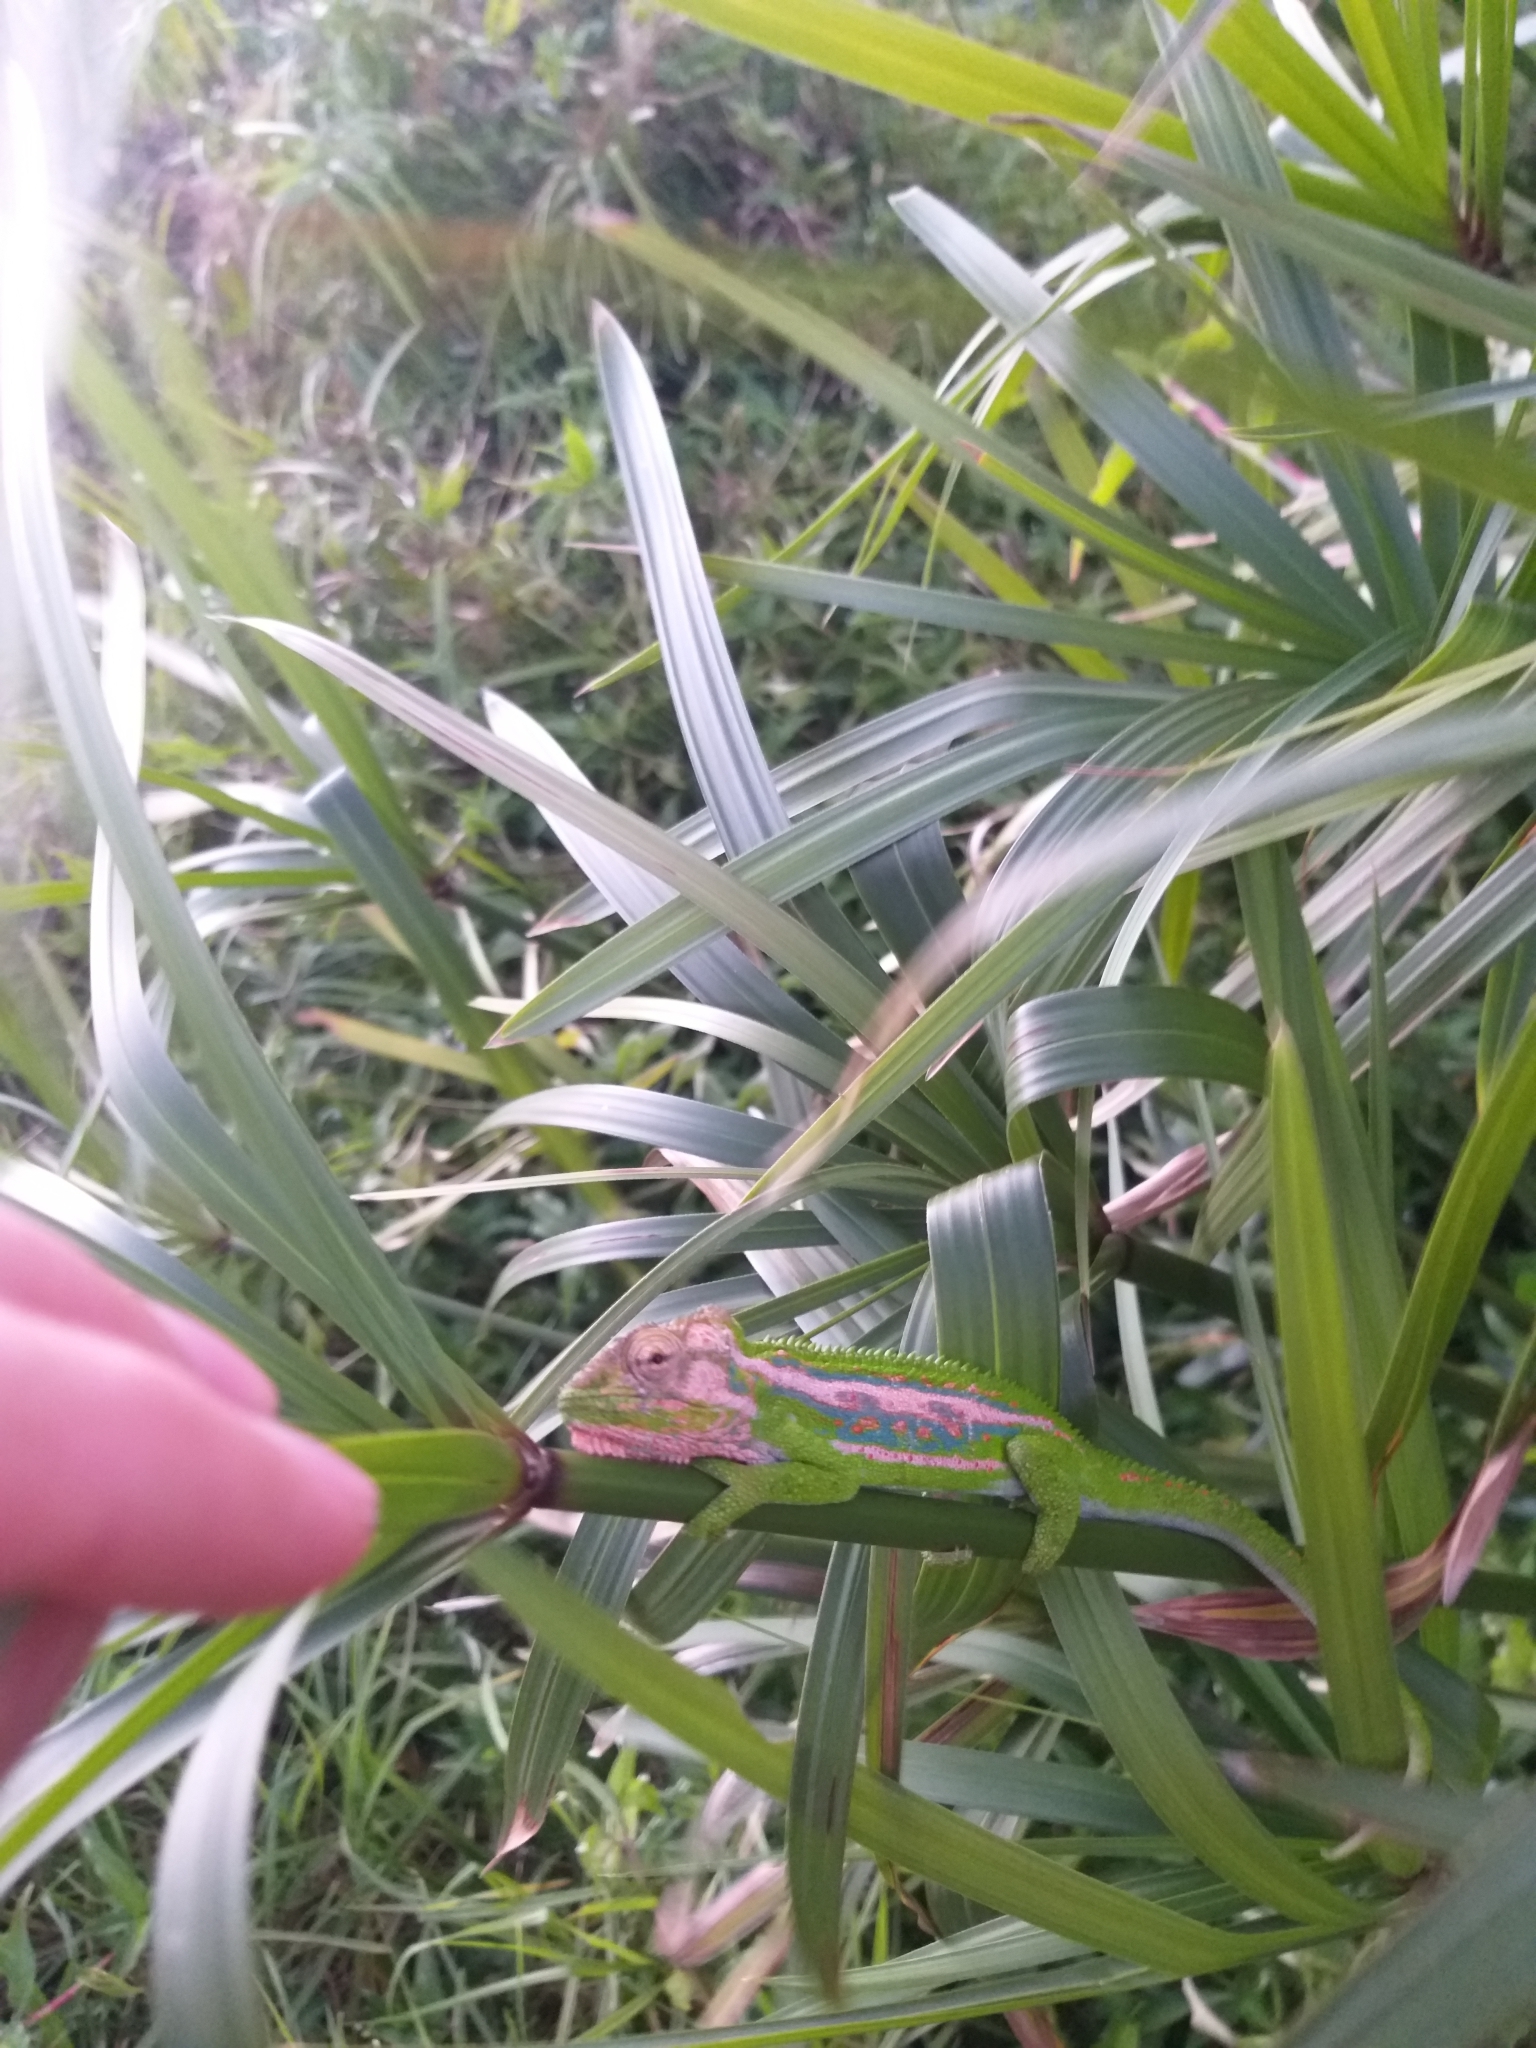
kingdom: Animalia
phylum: Chordata
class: Squamata
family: Chamaeleonidae
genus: Bradypodion
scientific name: Bradypodion pumilum
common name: Cape dwarf chameleon
